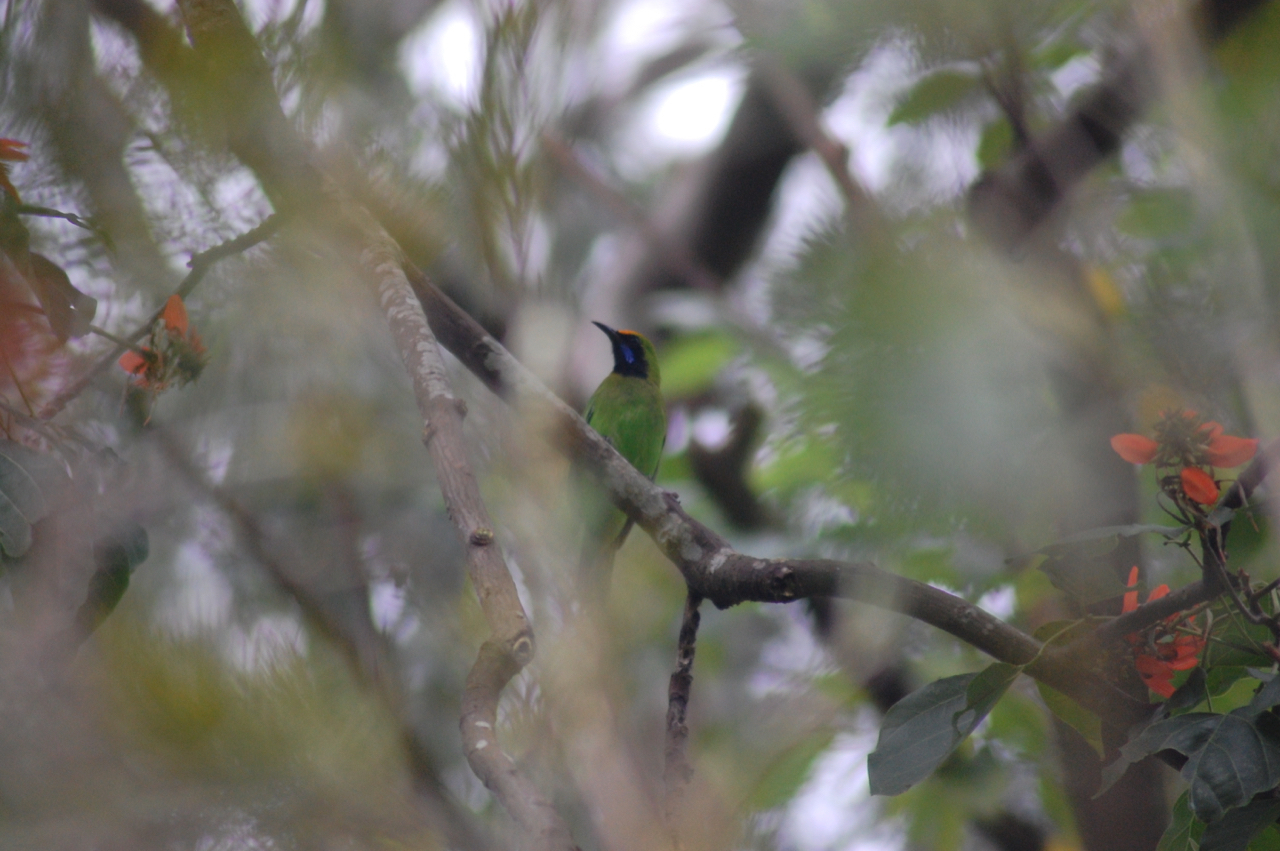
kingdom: Animalia
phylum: Chordata
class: Aves
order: Passeriformes
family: Chloropseidae
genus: Chloropsis
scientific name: Chloropsis aurifrons
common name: Golden-fronted leafbird
